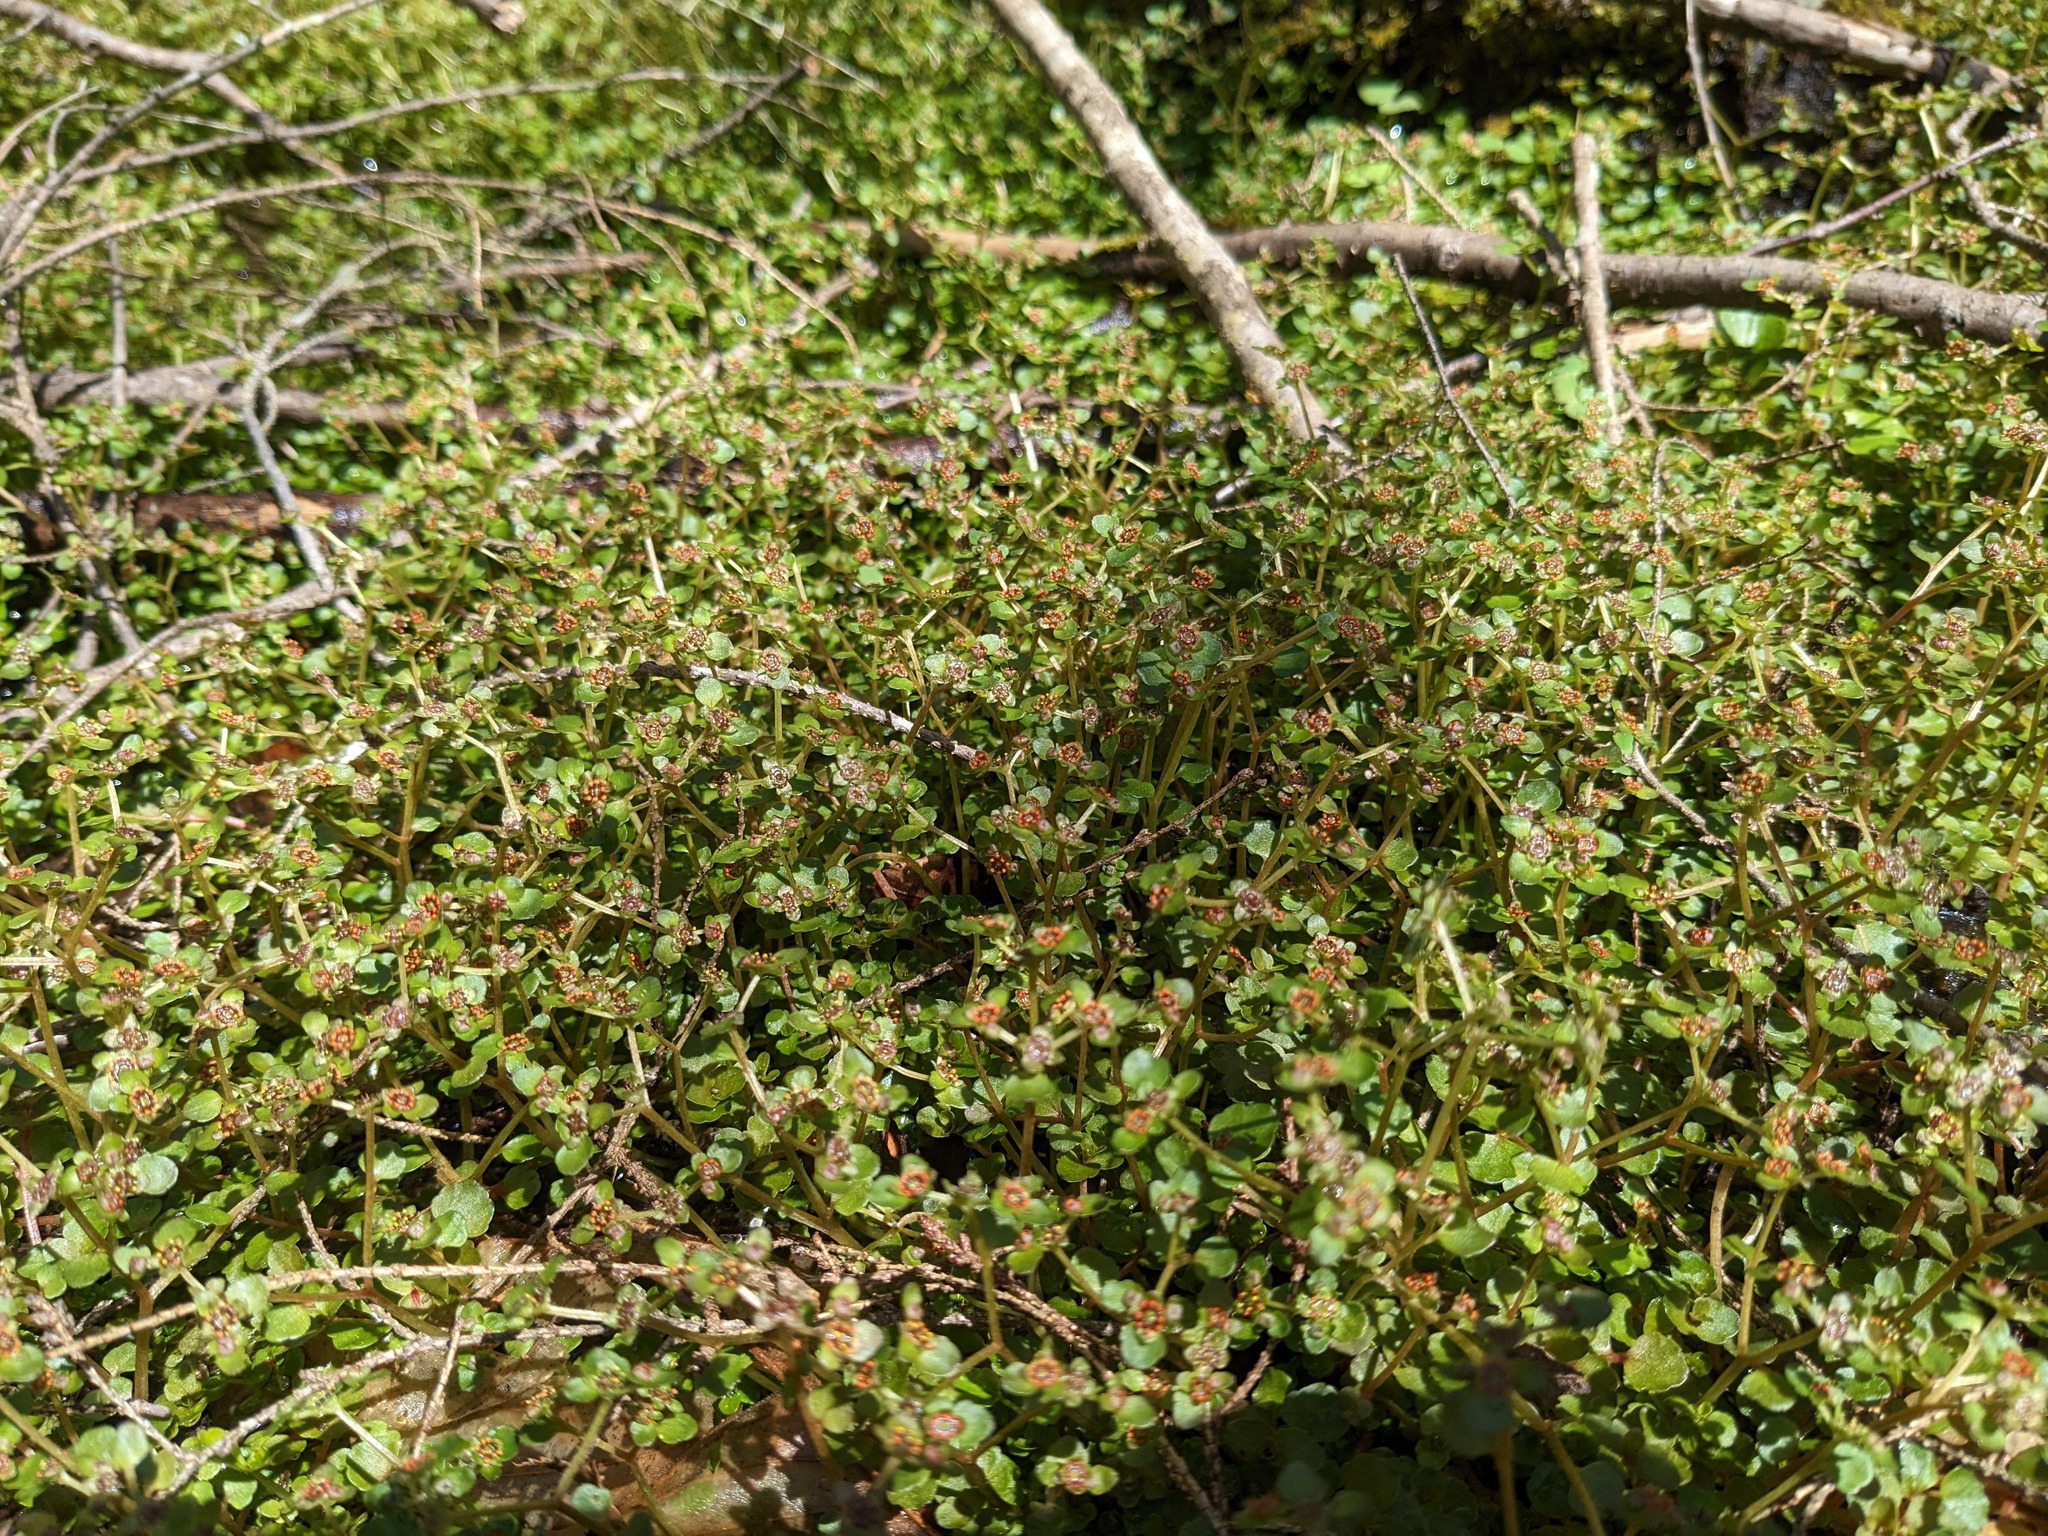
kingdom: Plantae
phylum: Tracheophyta
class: Magnoliopsida
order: Saxifragales
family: Saxifragaceae
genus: Chrysosplenium
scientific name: Chrysosplenium americanum
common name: American golden-saxifrage
